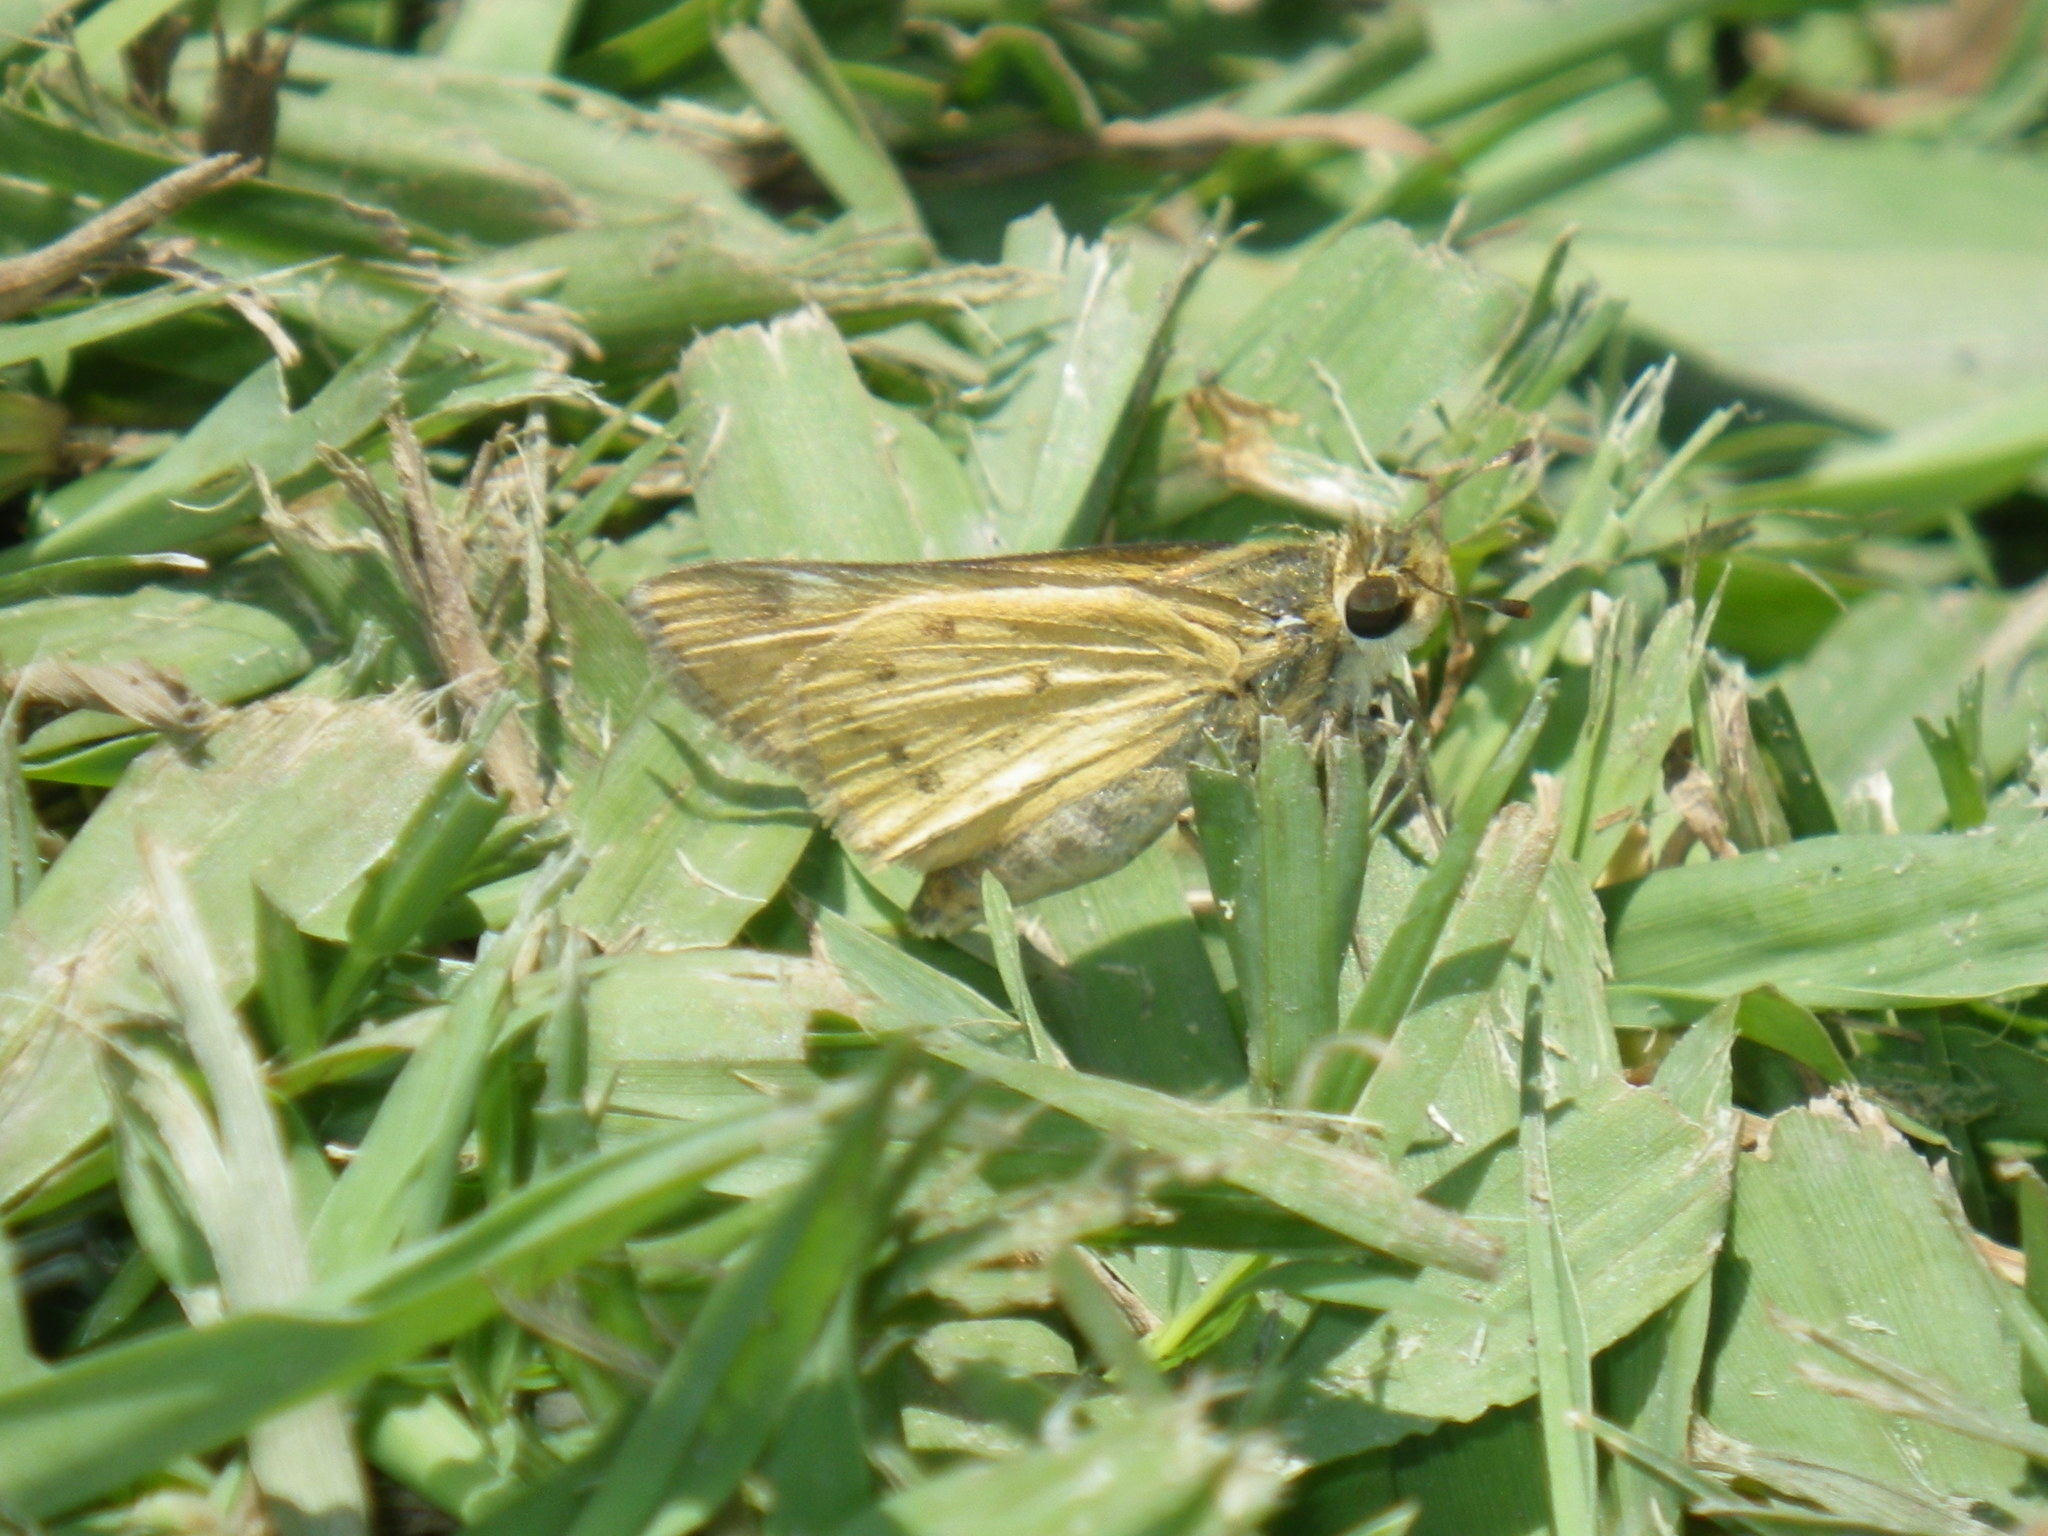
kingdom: Animalia
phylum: Arthropoda
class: Insecta
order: Lepidoptera
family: Hesperiidae
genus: Hylephila
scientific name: Hylephila phyleus
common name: Fiery skipper
